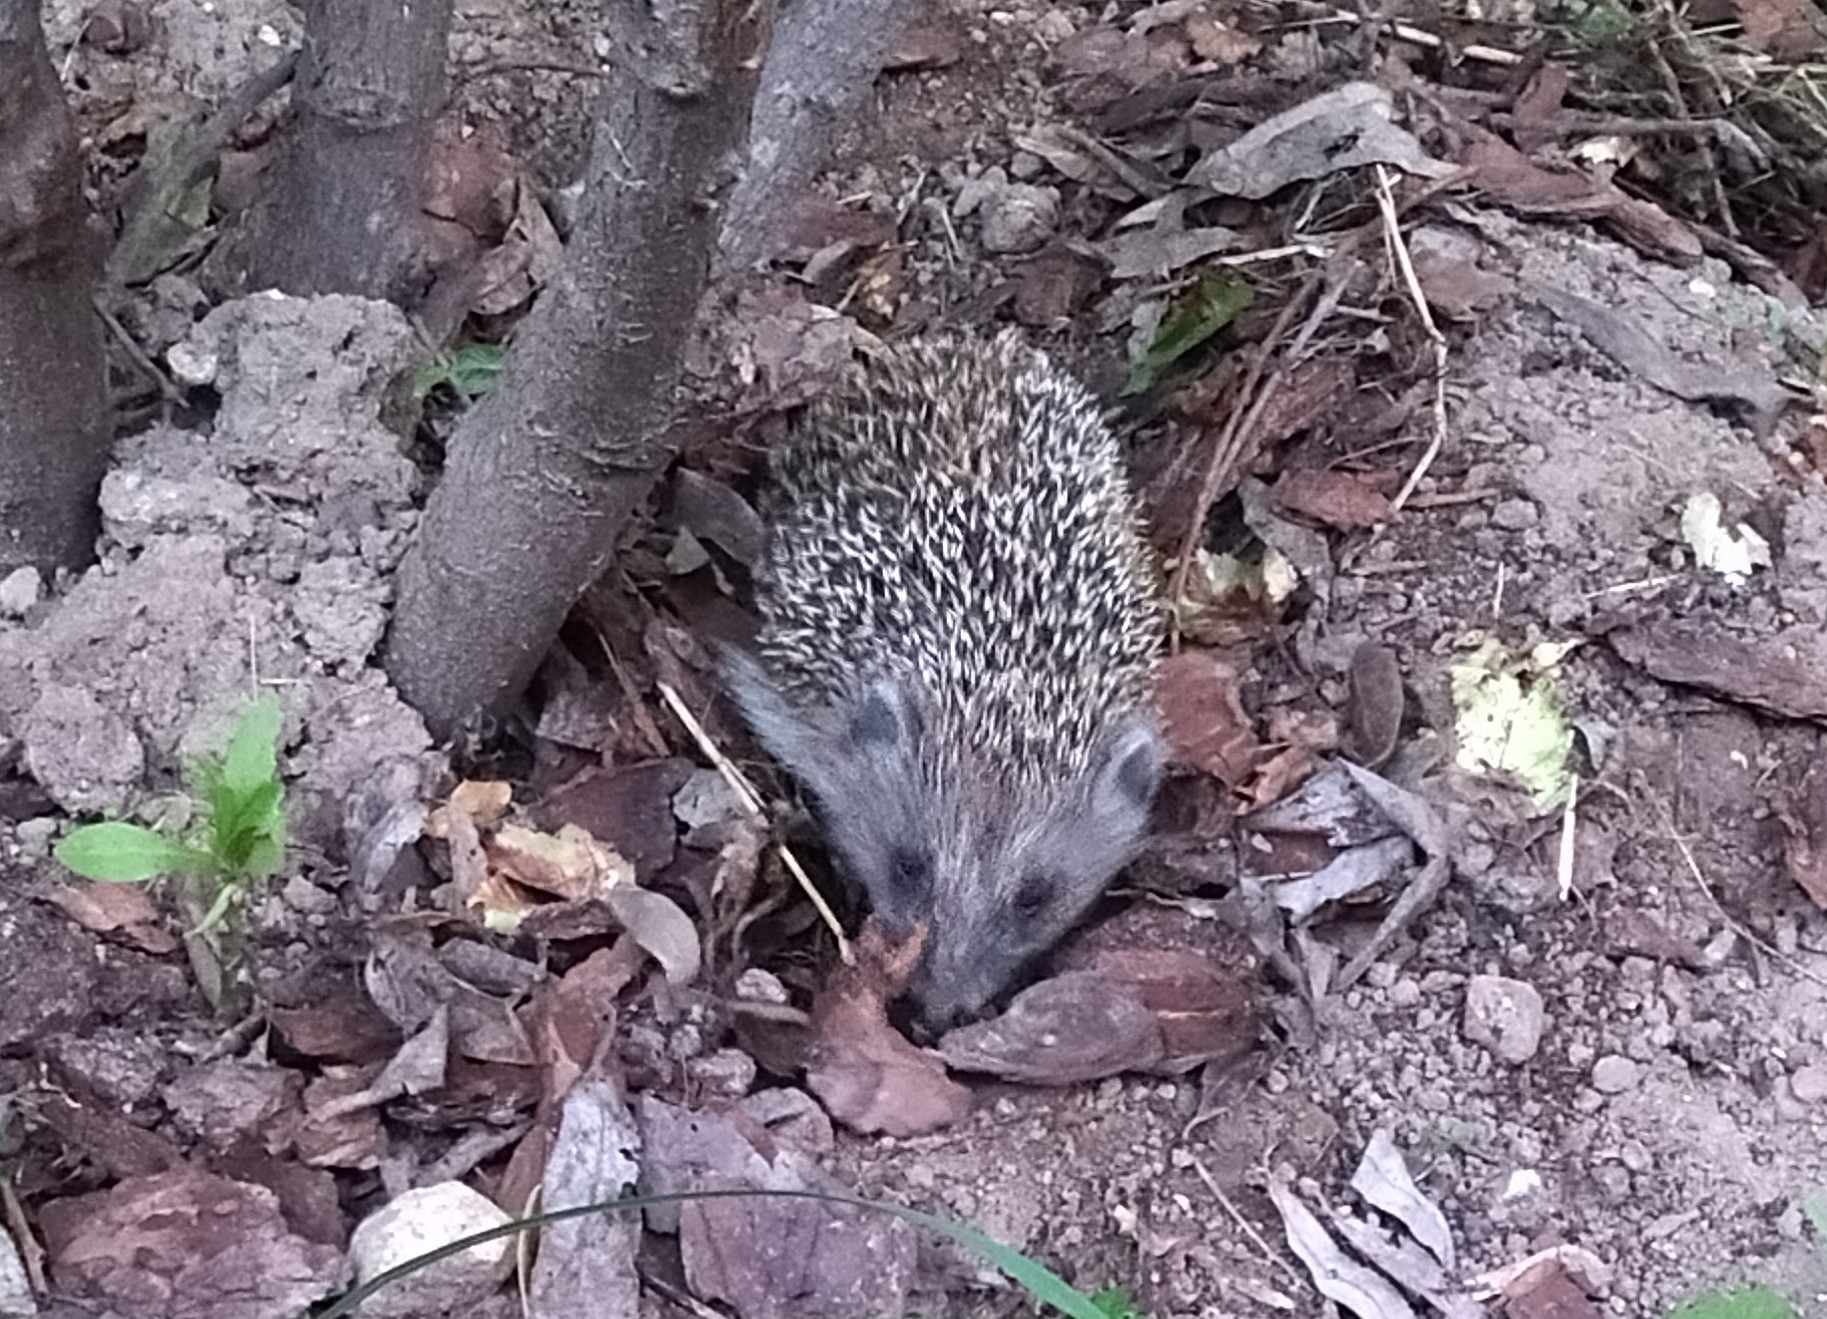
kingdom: Animalia
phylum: Chordata
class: Mammalia
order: Erinaceomorpha
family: Erinaceidae
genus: Erinaceus
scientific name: Erinaceus roumanicus
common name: Northern white-breasted hedgehog
